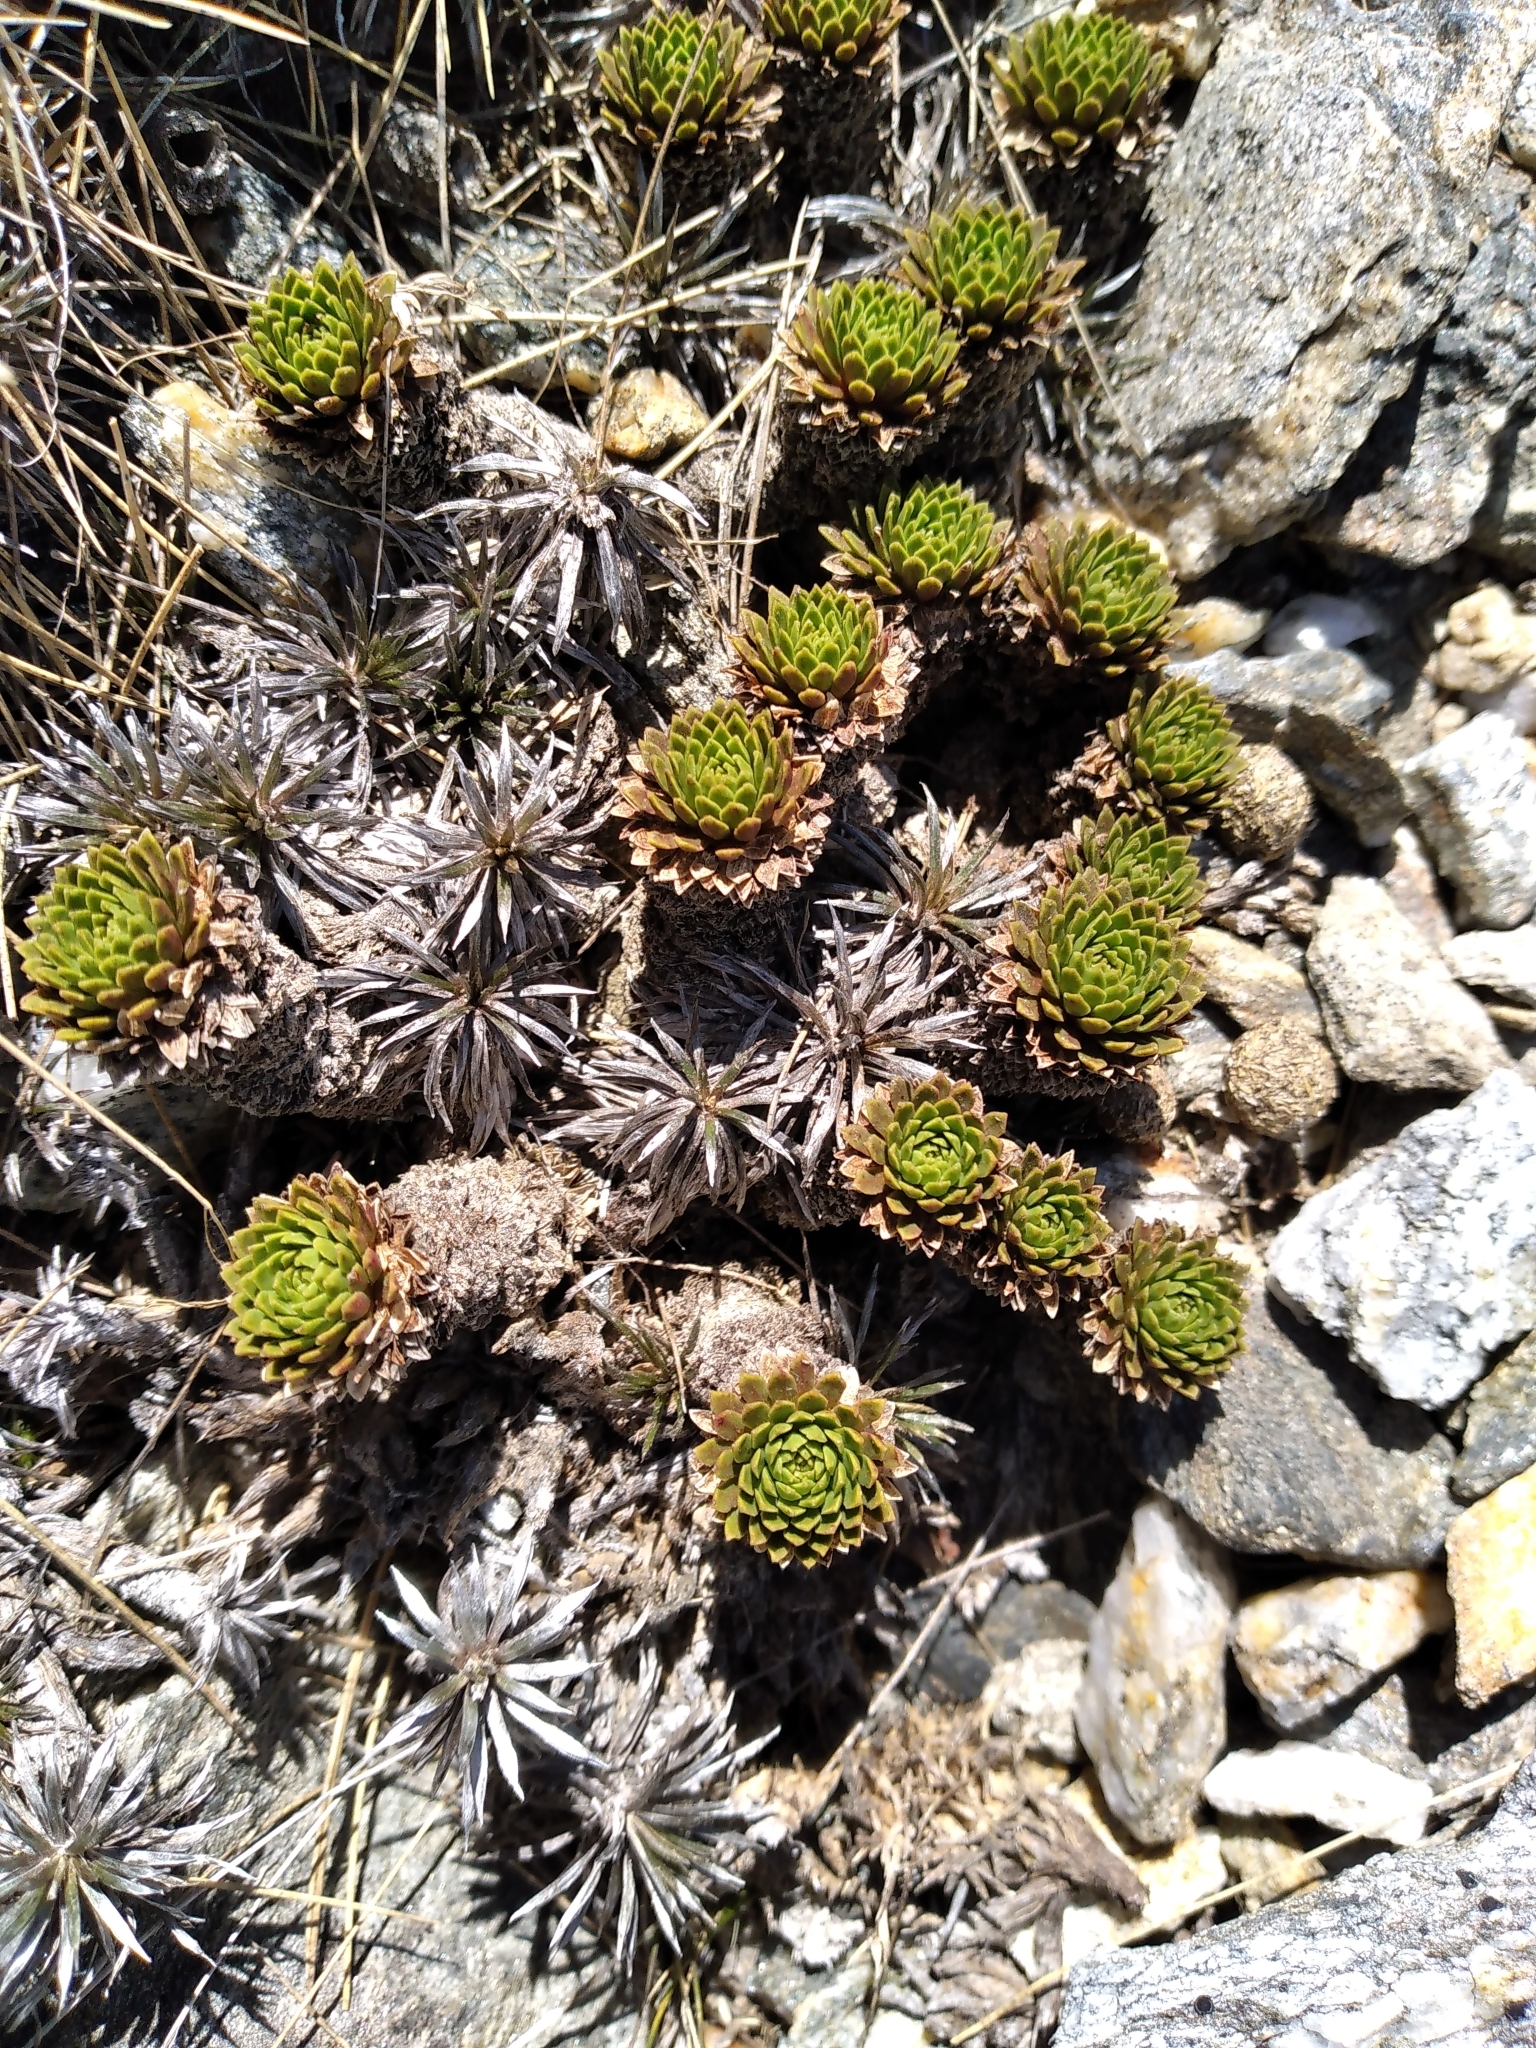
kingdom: Plantae
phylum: Tracheophyta
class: Magnoliopsida
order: Caryophyllales
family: Montiaceae
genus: Hectorella
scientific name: Hectorella caespitosa
